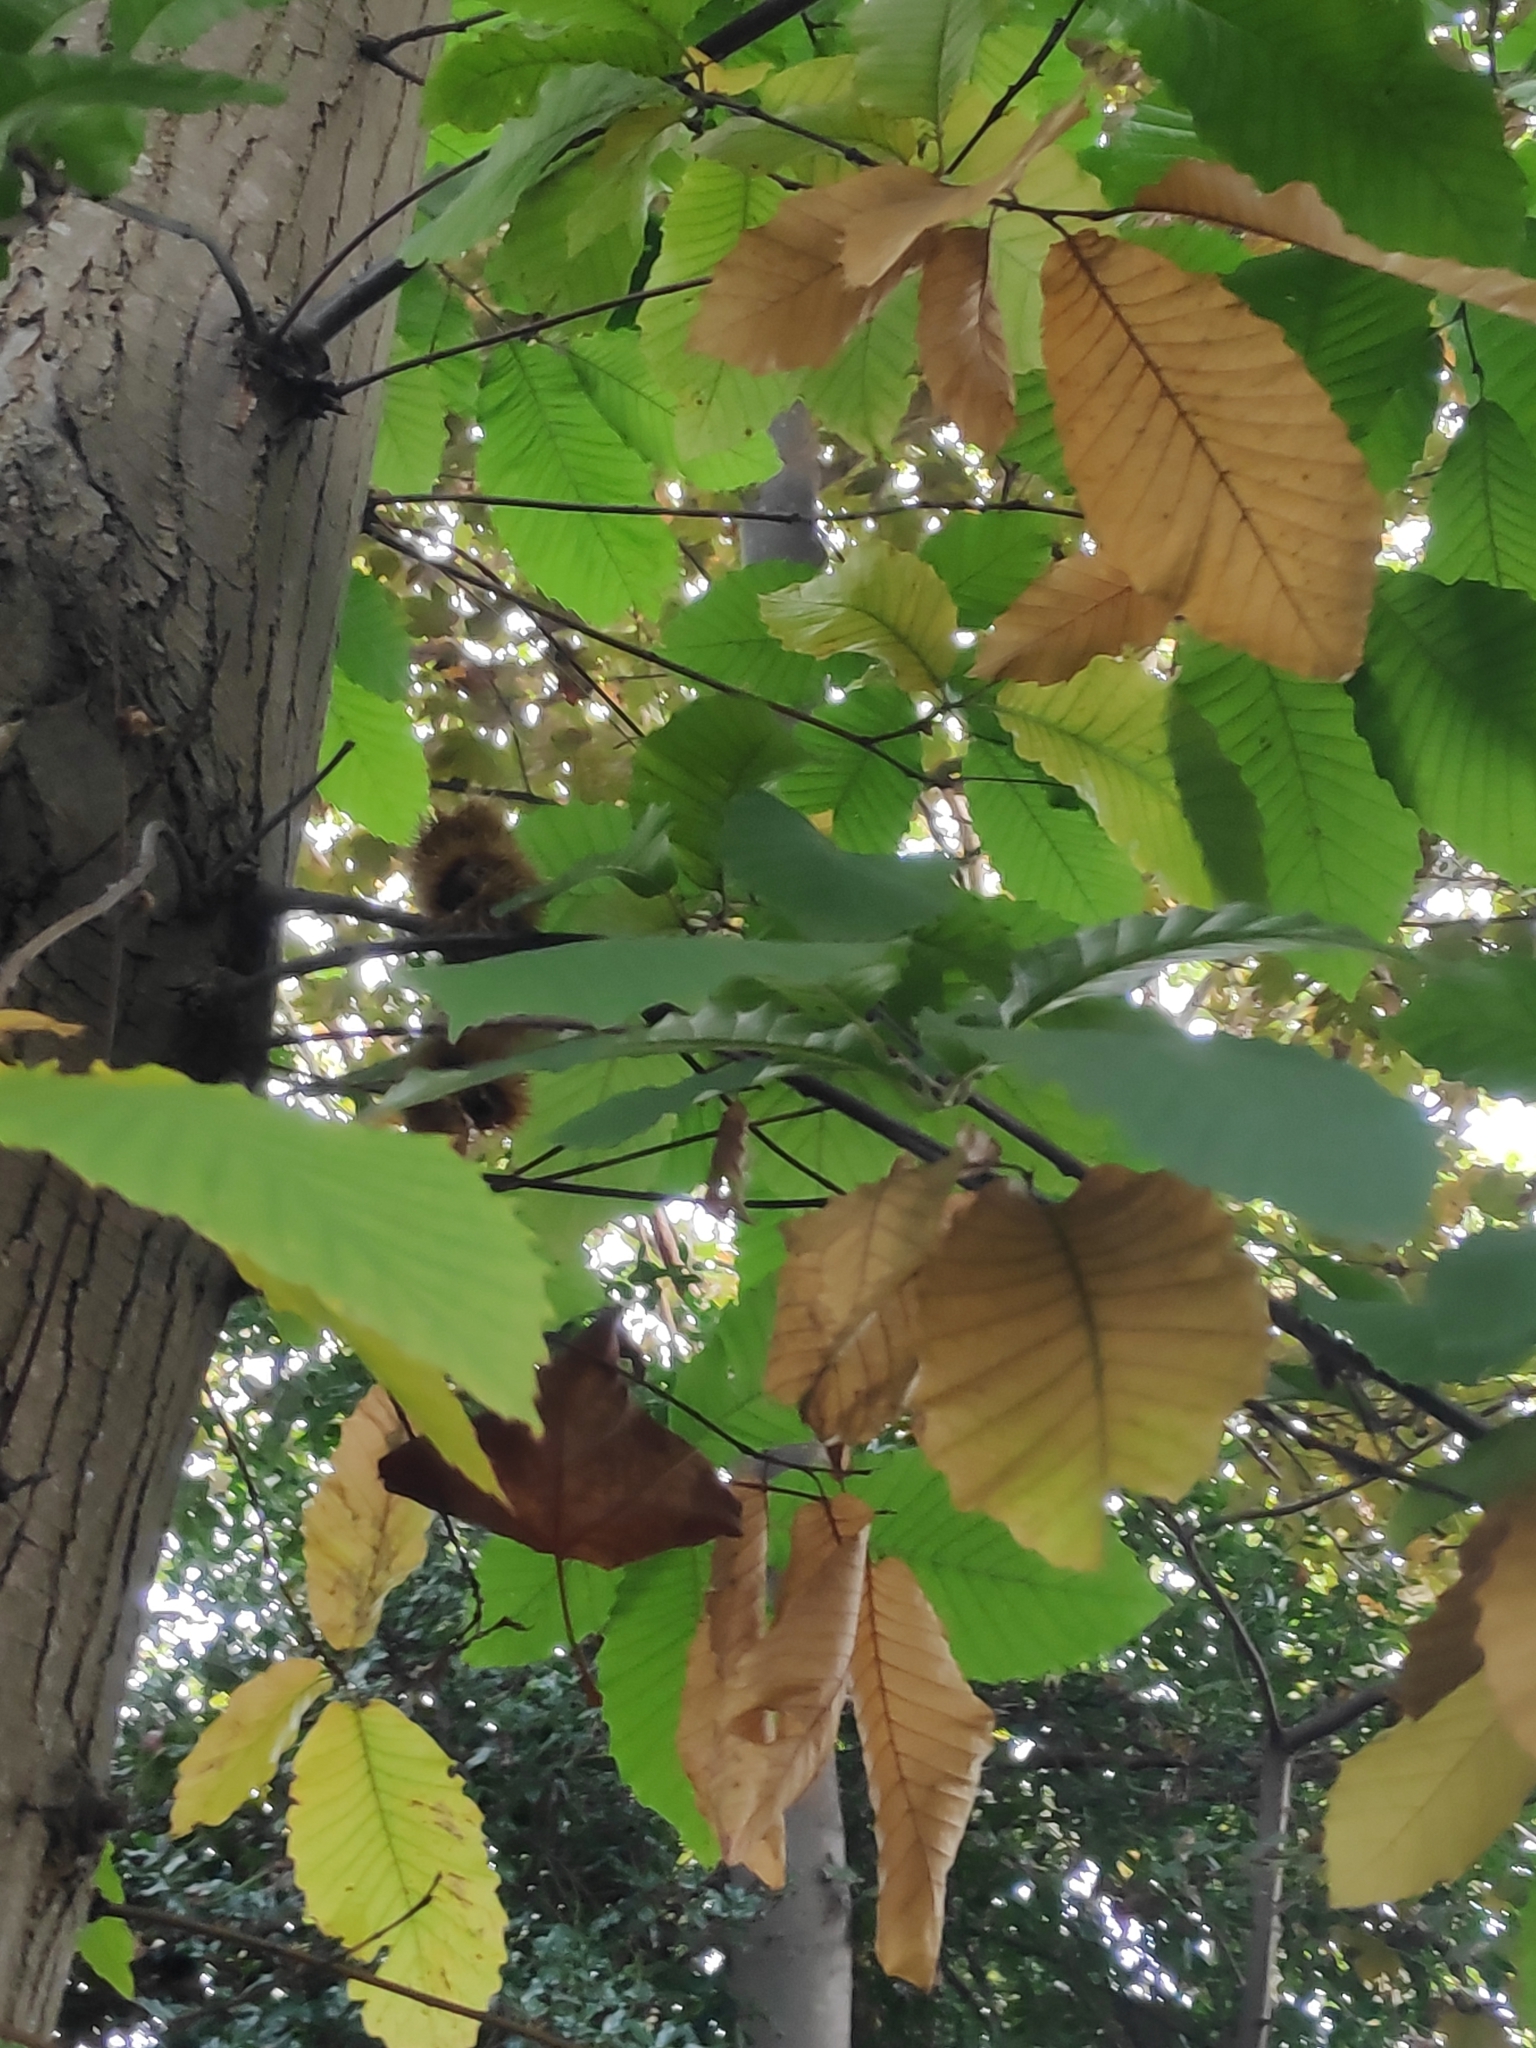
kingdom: Plantae
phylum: Tracheophyta
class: Magnoliopsida
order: Fagales
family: Fagaceae
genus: Castanea
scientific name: Castanea sativa
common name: Sweet chestnut
